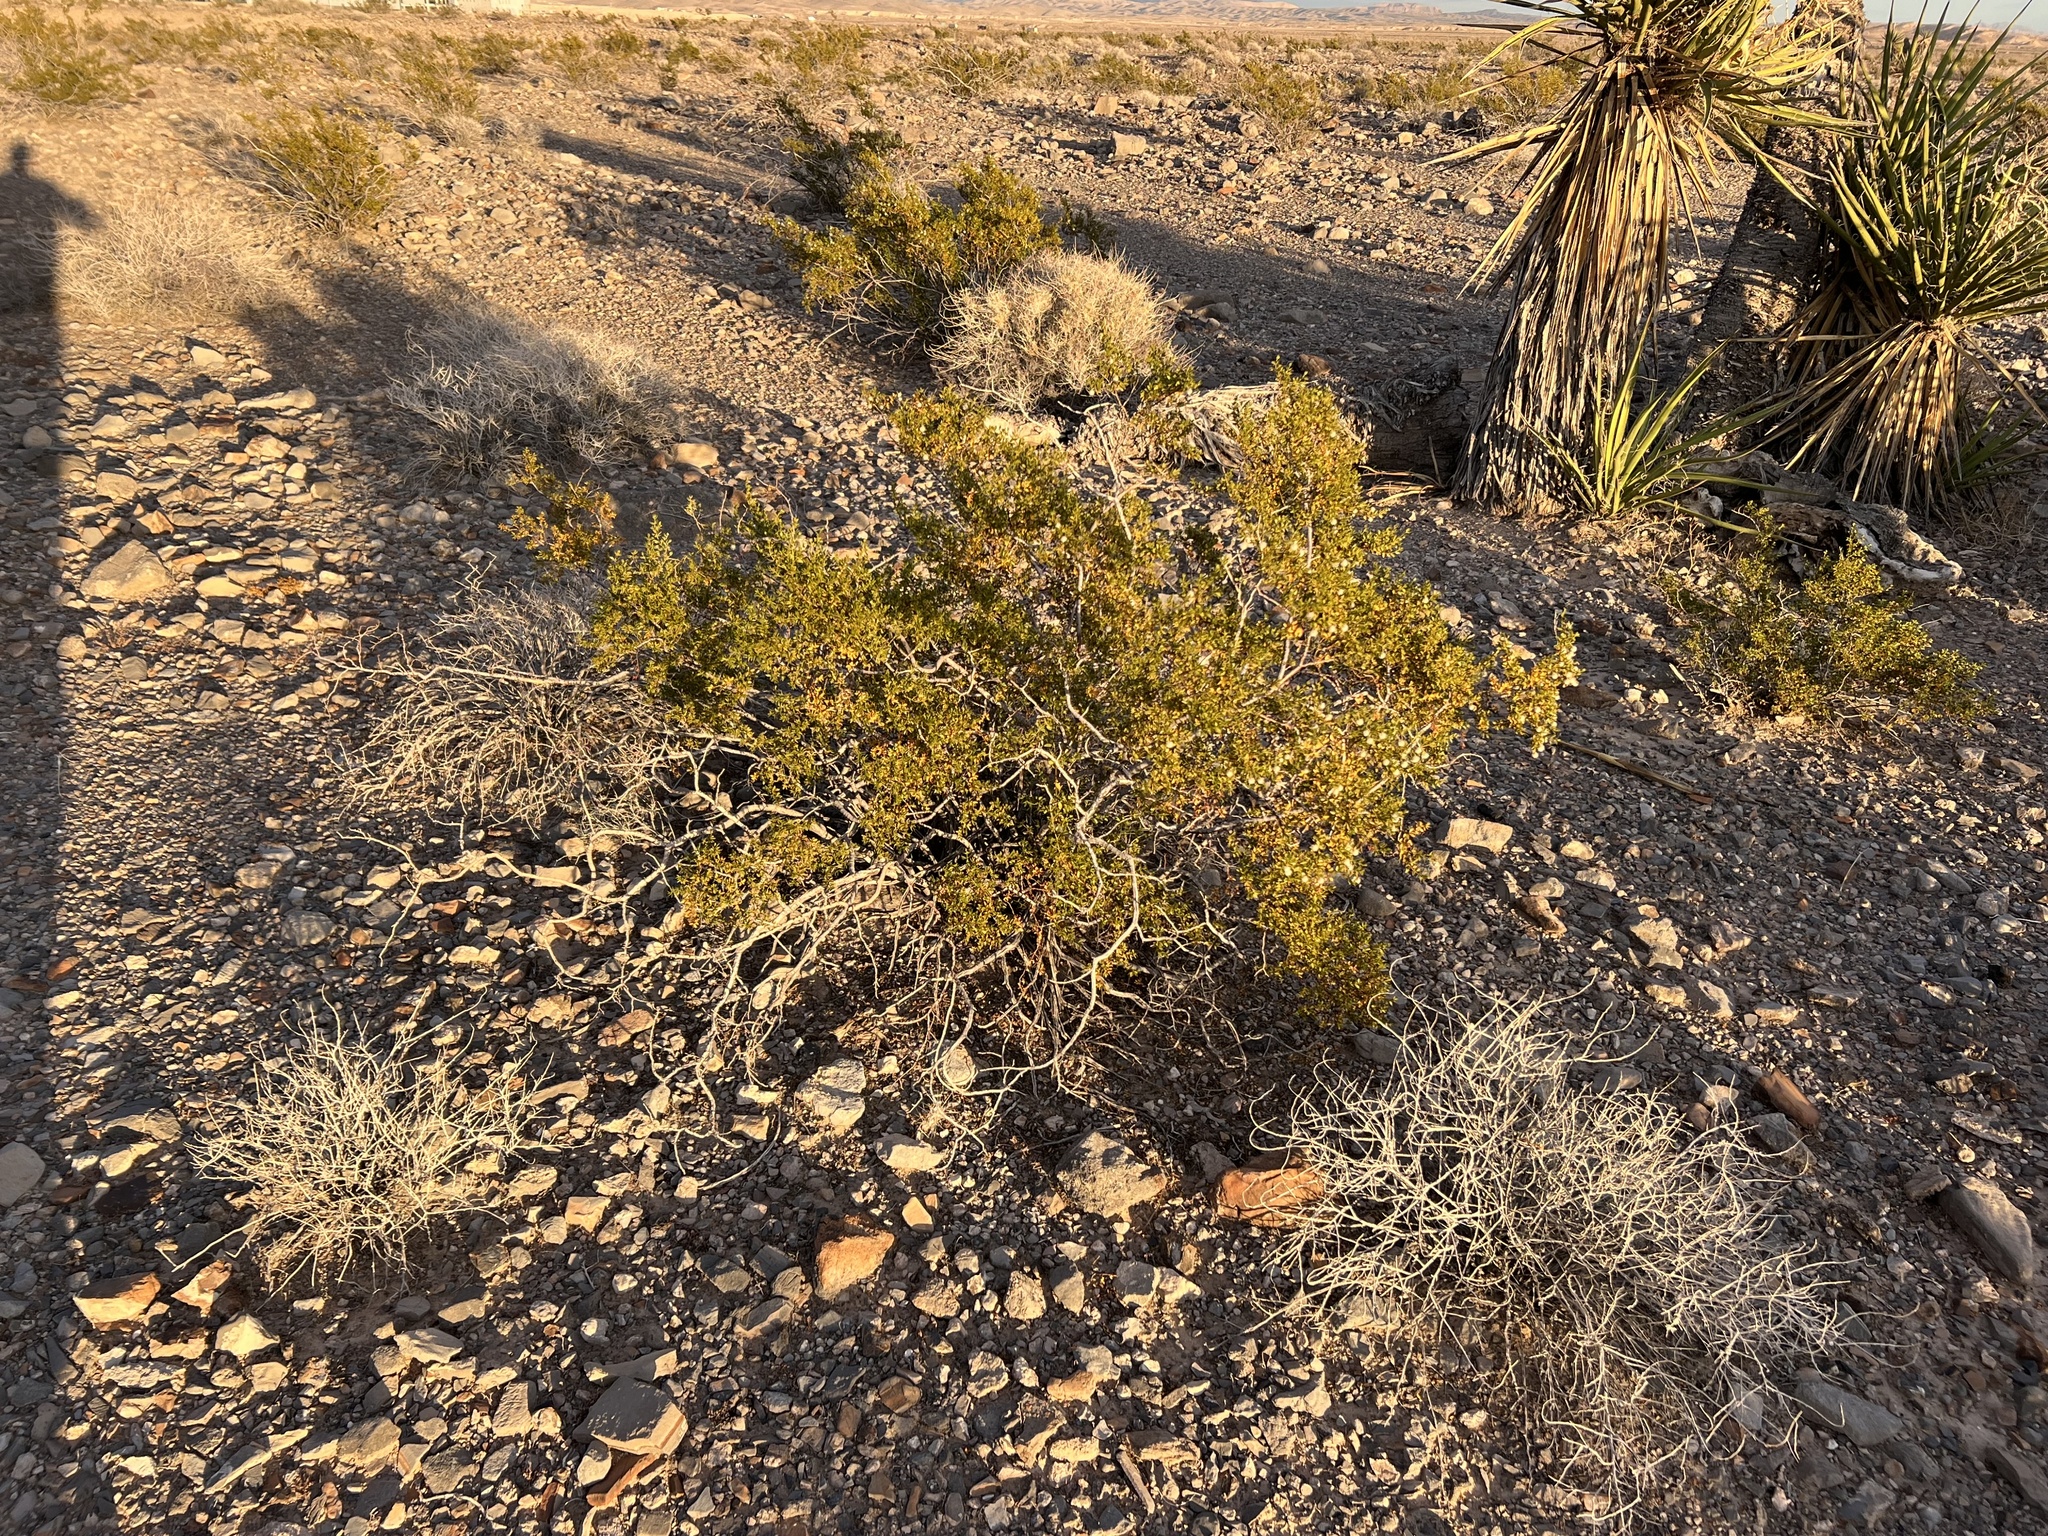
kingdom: Plantae
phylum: Tracheophyta
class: Magnoliopsida
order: Zygophyllales
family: Zygophyllaceae
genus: Larrea
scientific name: Larrea tridentata
